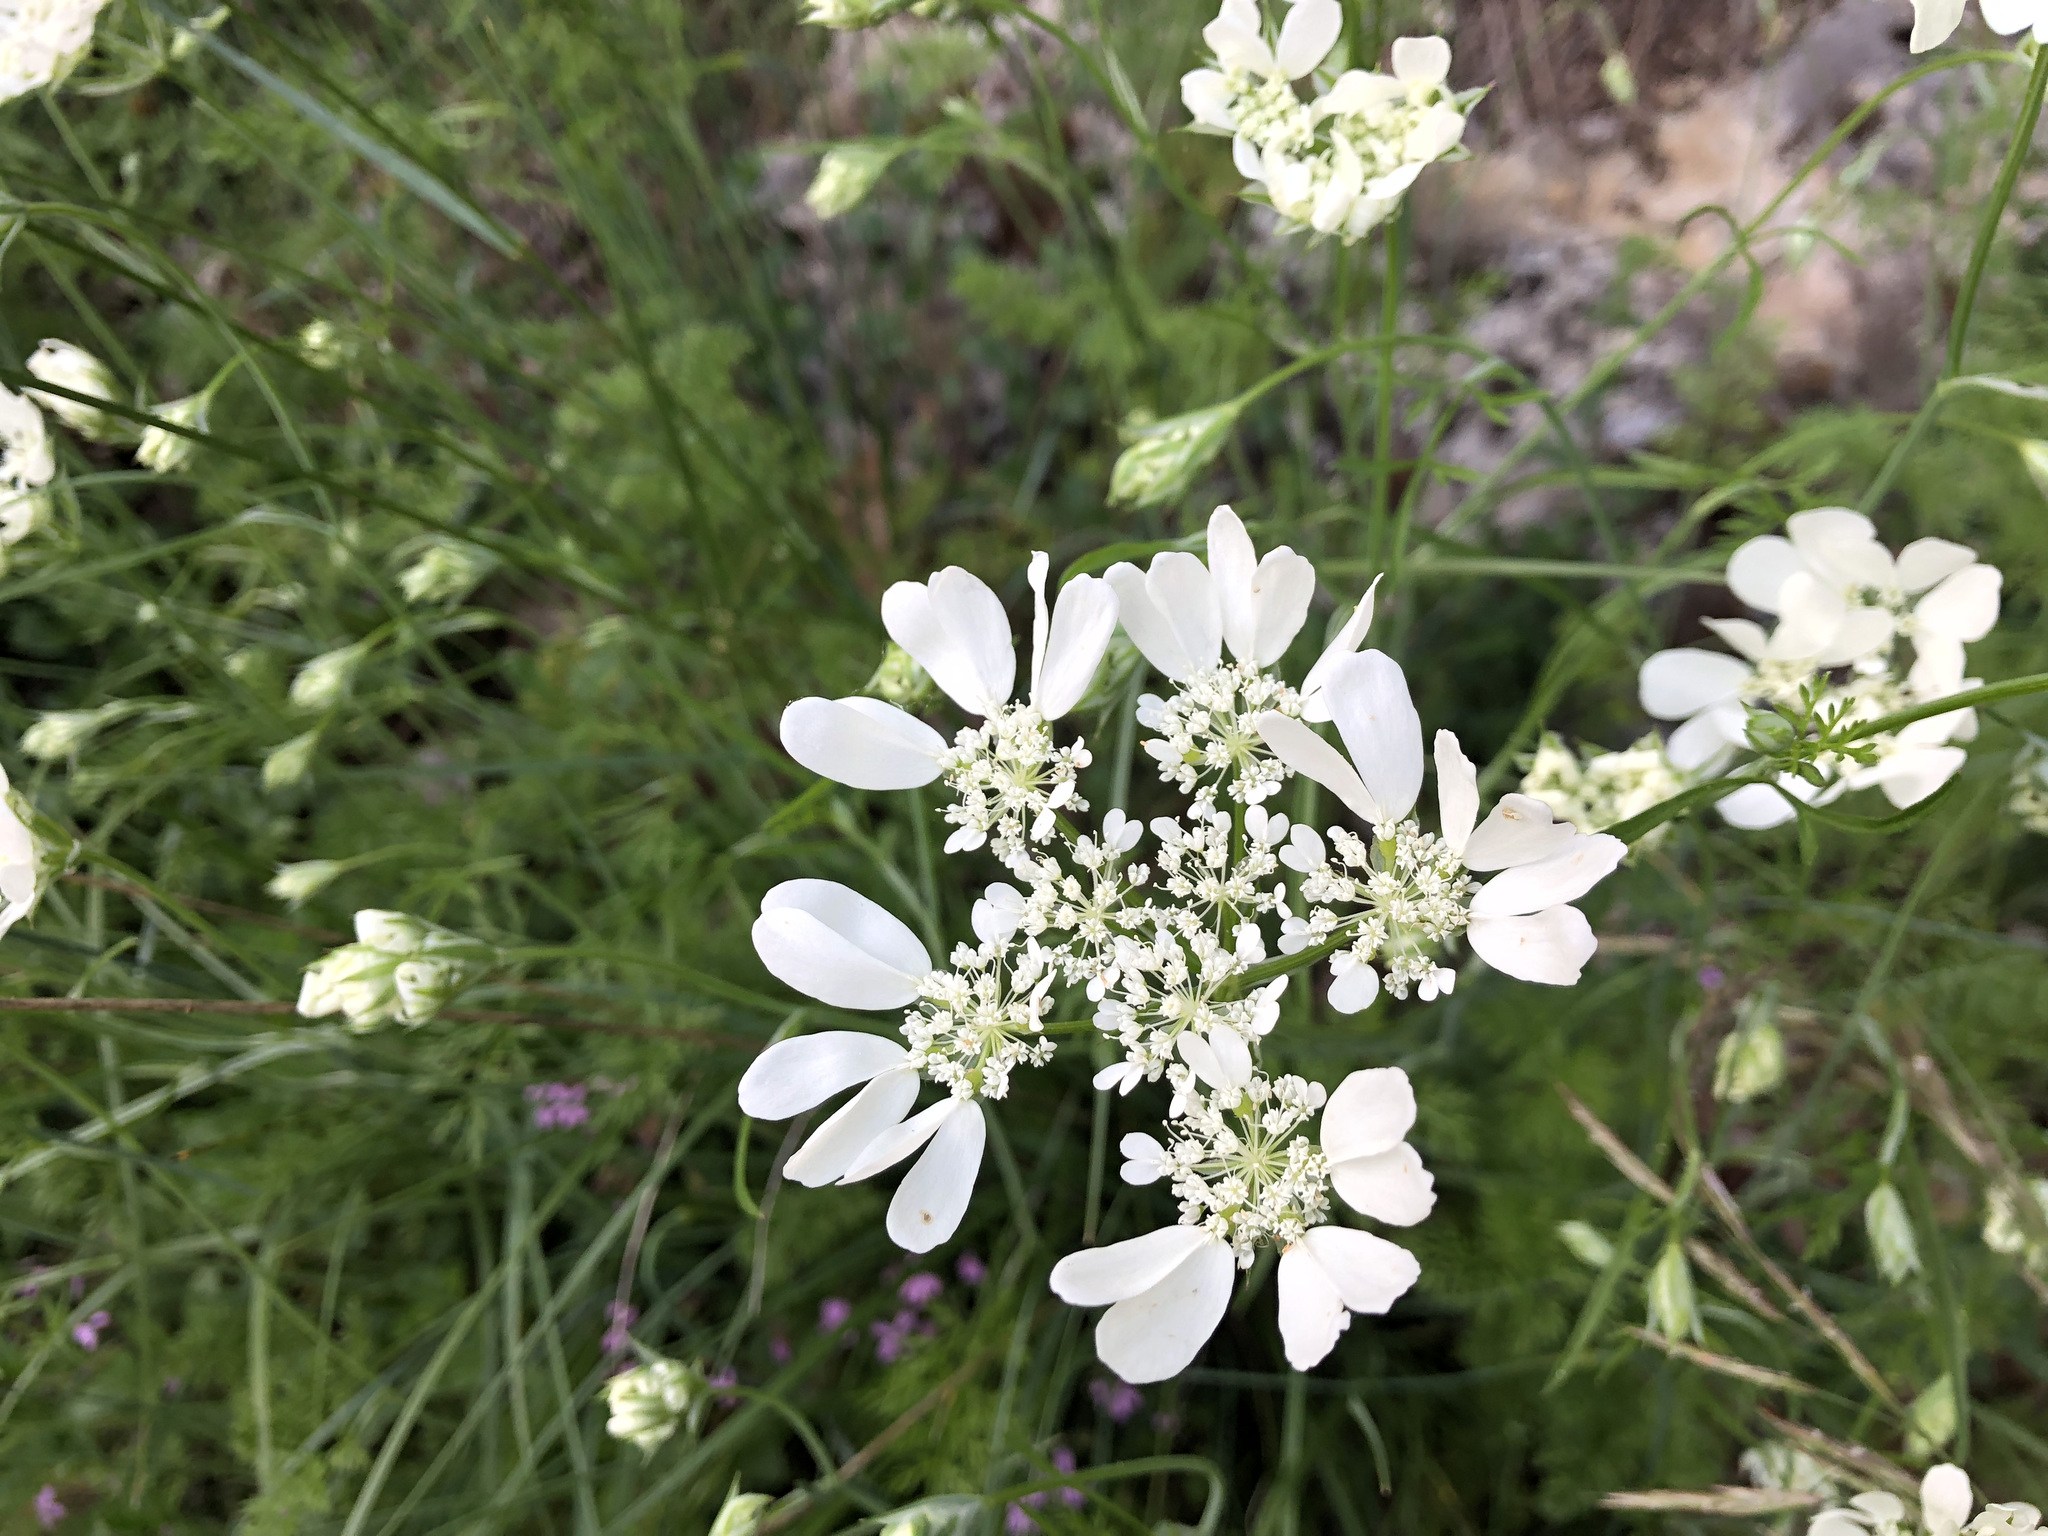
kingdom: Plantae
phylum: Tracheophyta
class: Magnoliopsida
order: Apiales
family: Apiaceae
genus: Orlaya
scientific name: Orlaya grandiflora
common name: White lace flower
